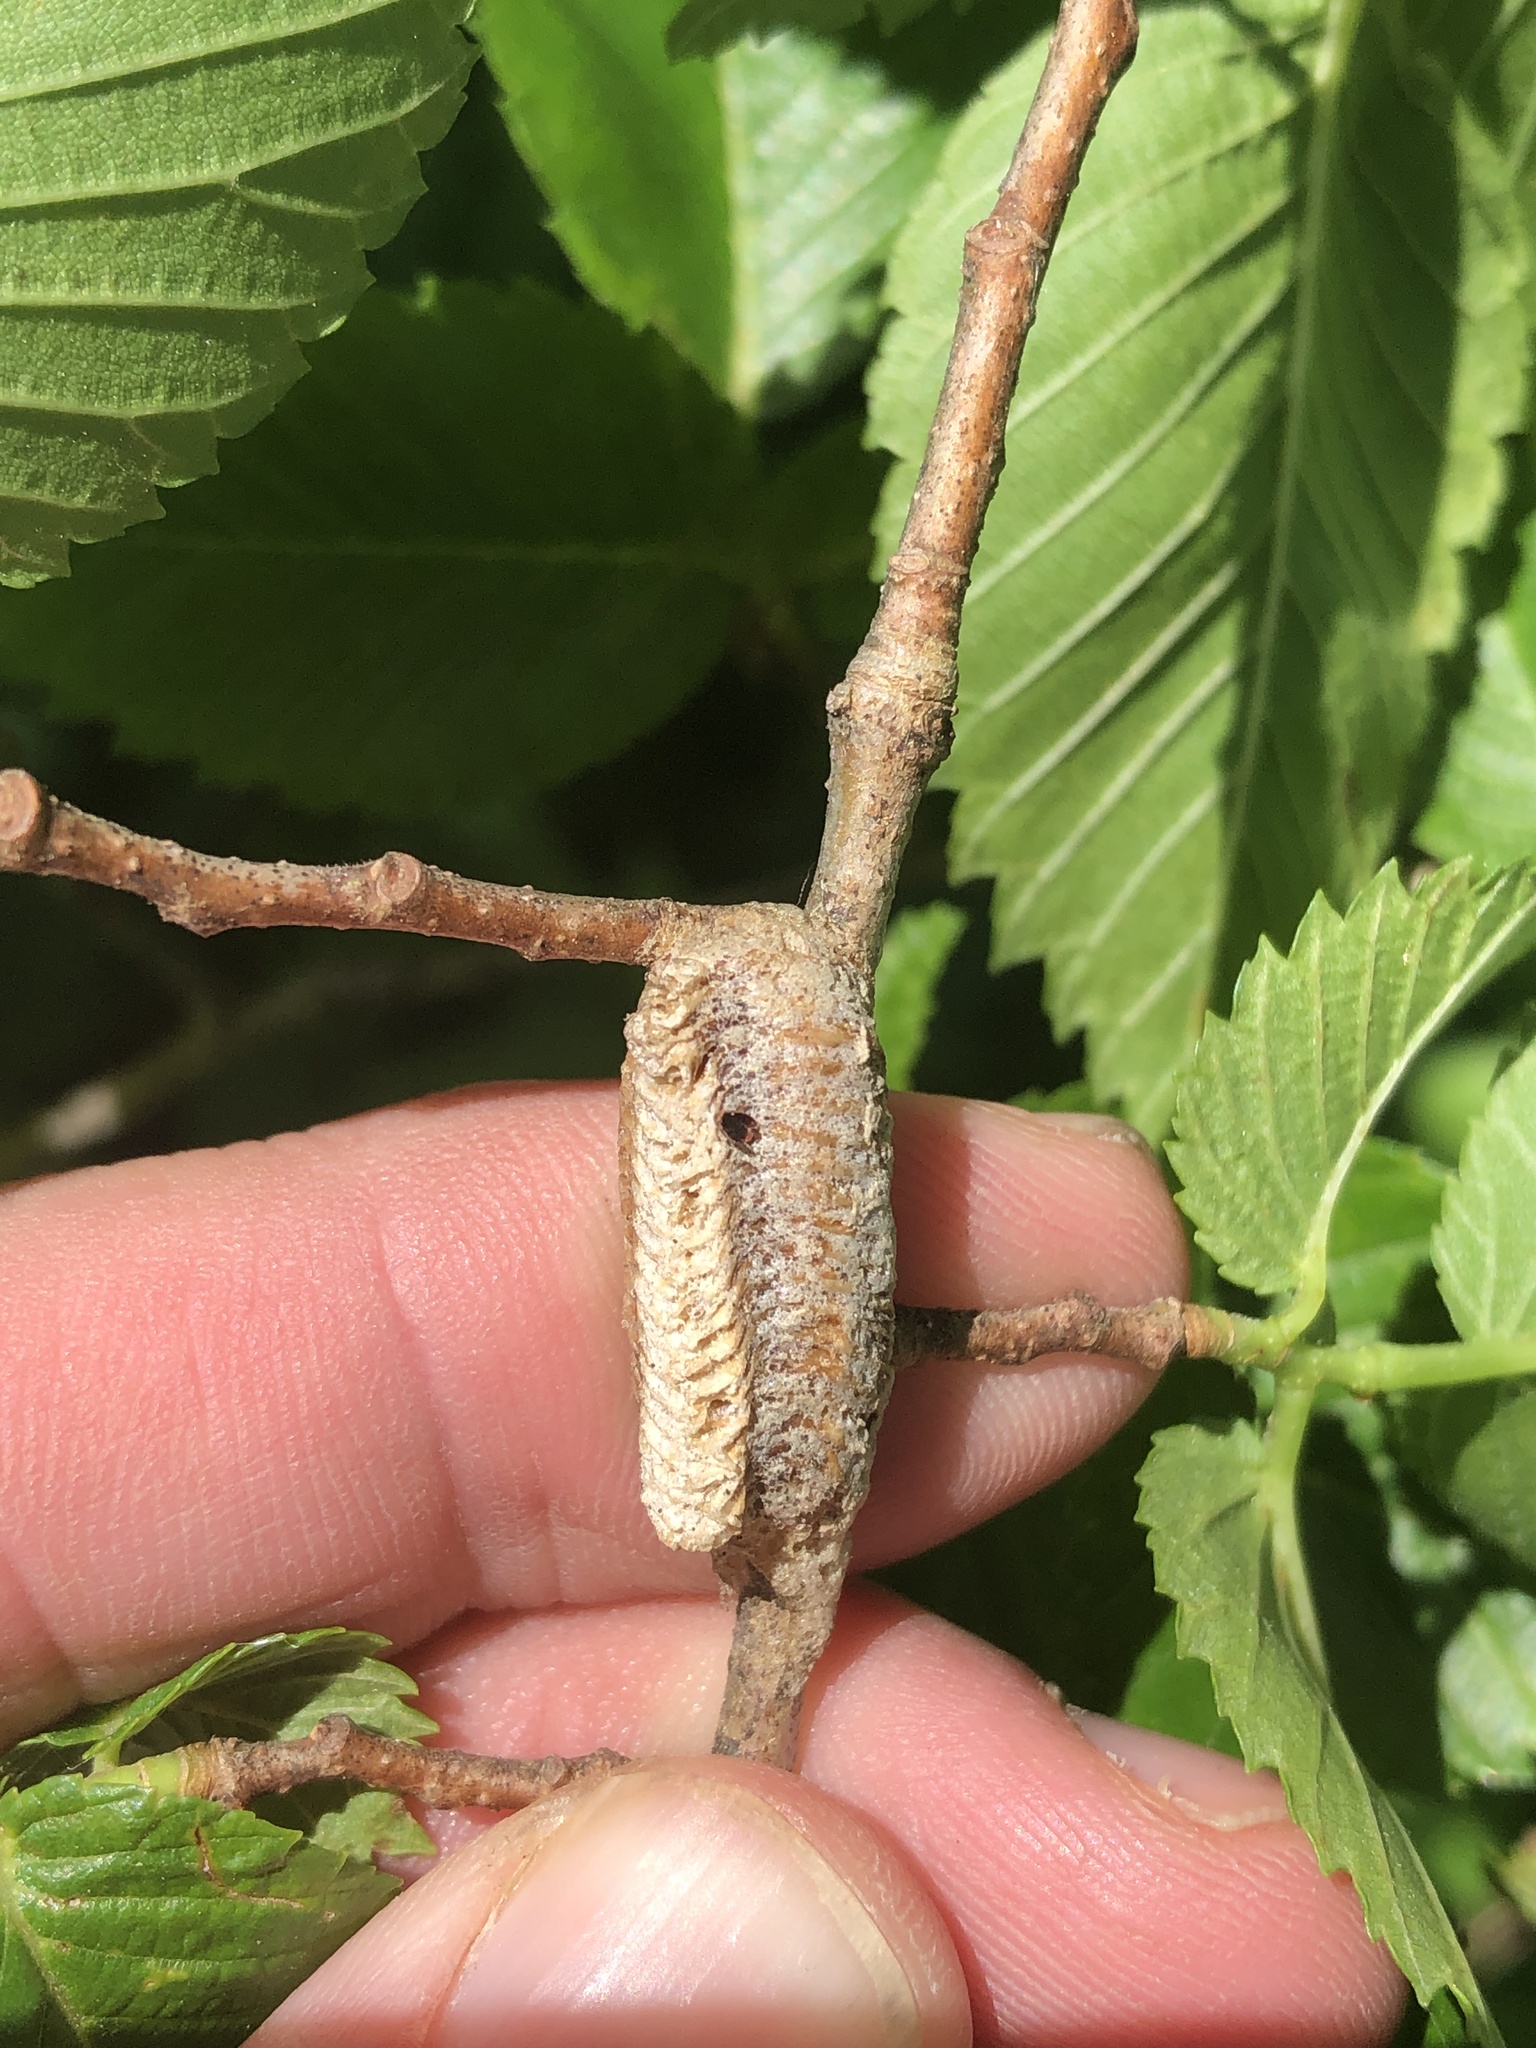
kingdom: Animalia
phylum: Arthropoda
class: Insecta
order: Mantodea
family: Mantidae
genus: Stagmomantis
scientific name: Stagmomantis carolina
